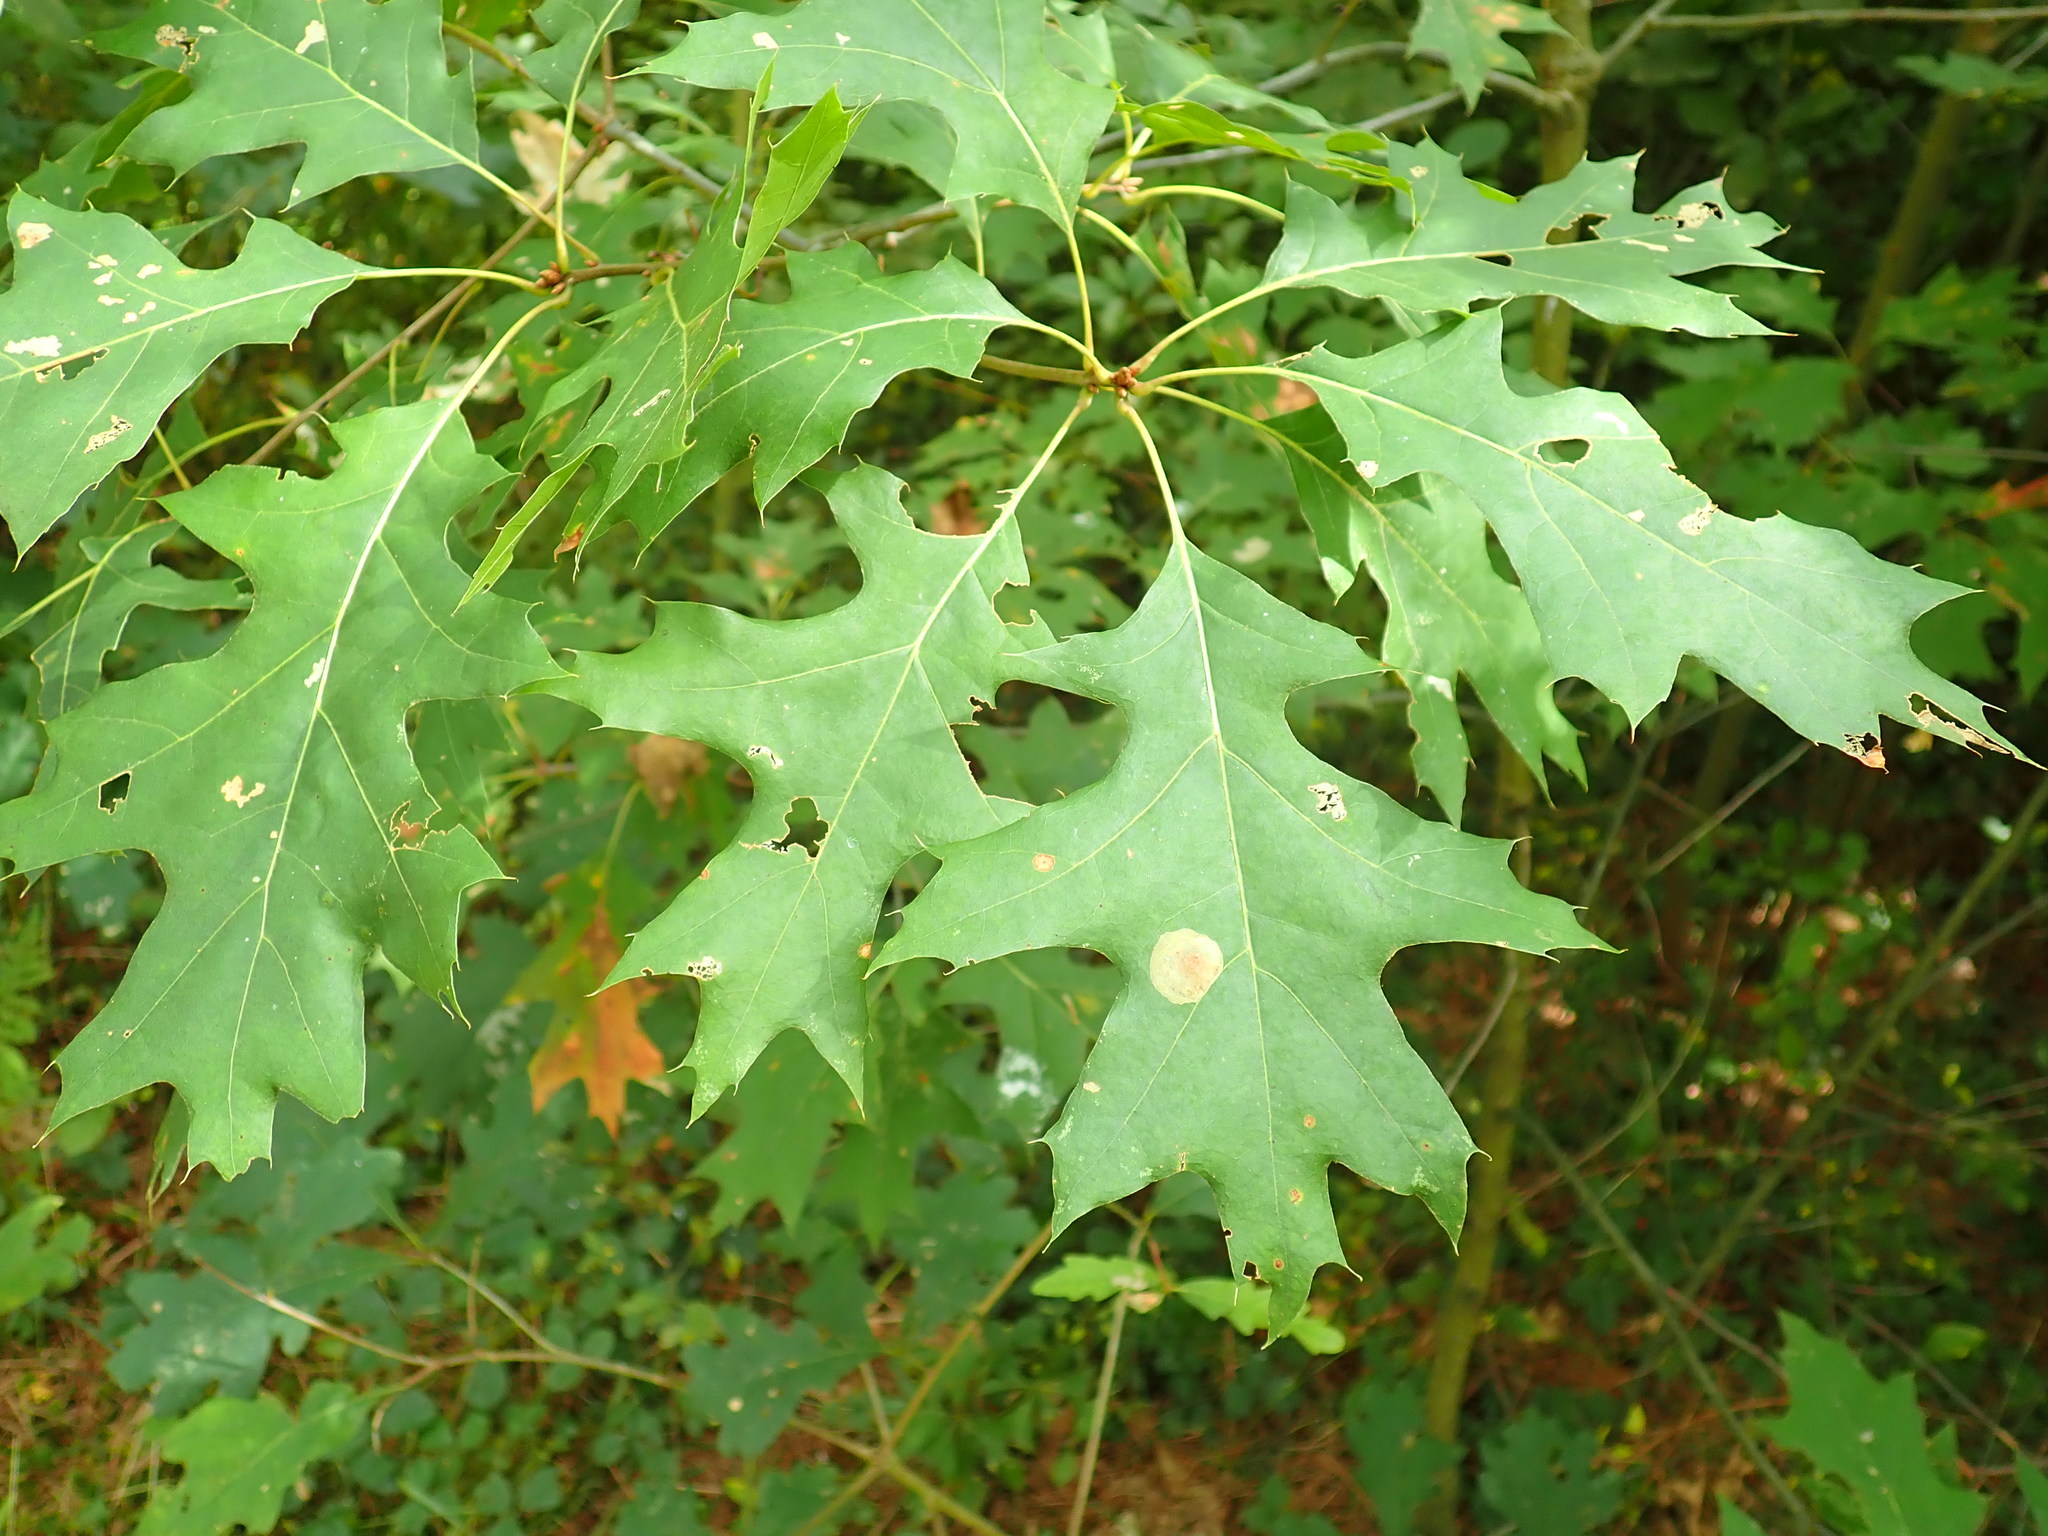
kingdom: Plantae
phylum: Tracheophyta
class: Magnoliopsida
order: Fagales
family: Fagaceae
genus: Quercus
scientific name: Quercus rubra
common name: Red oak
